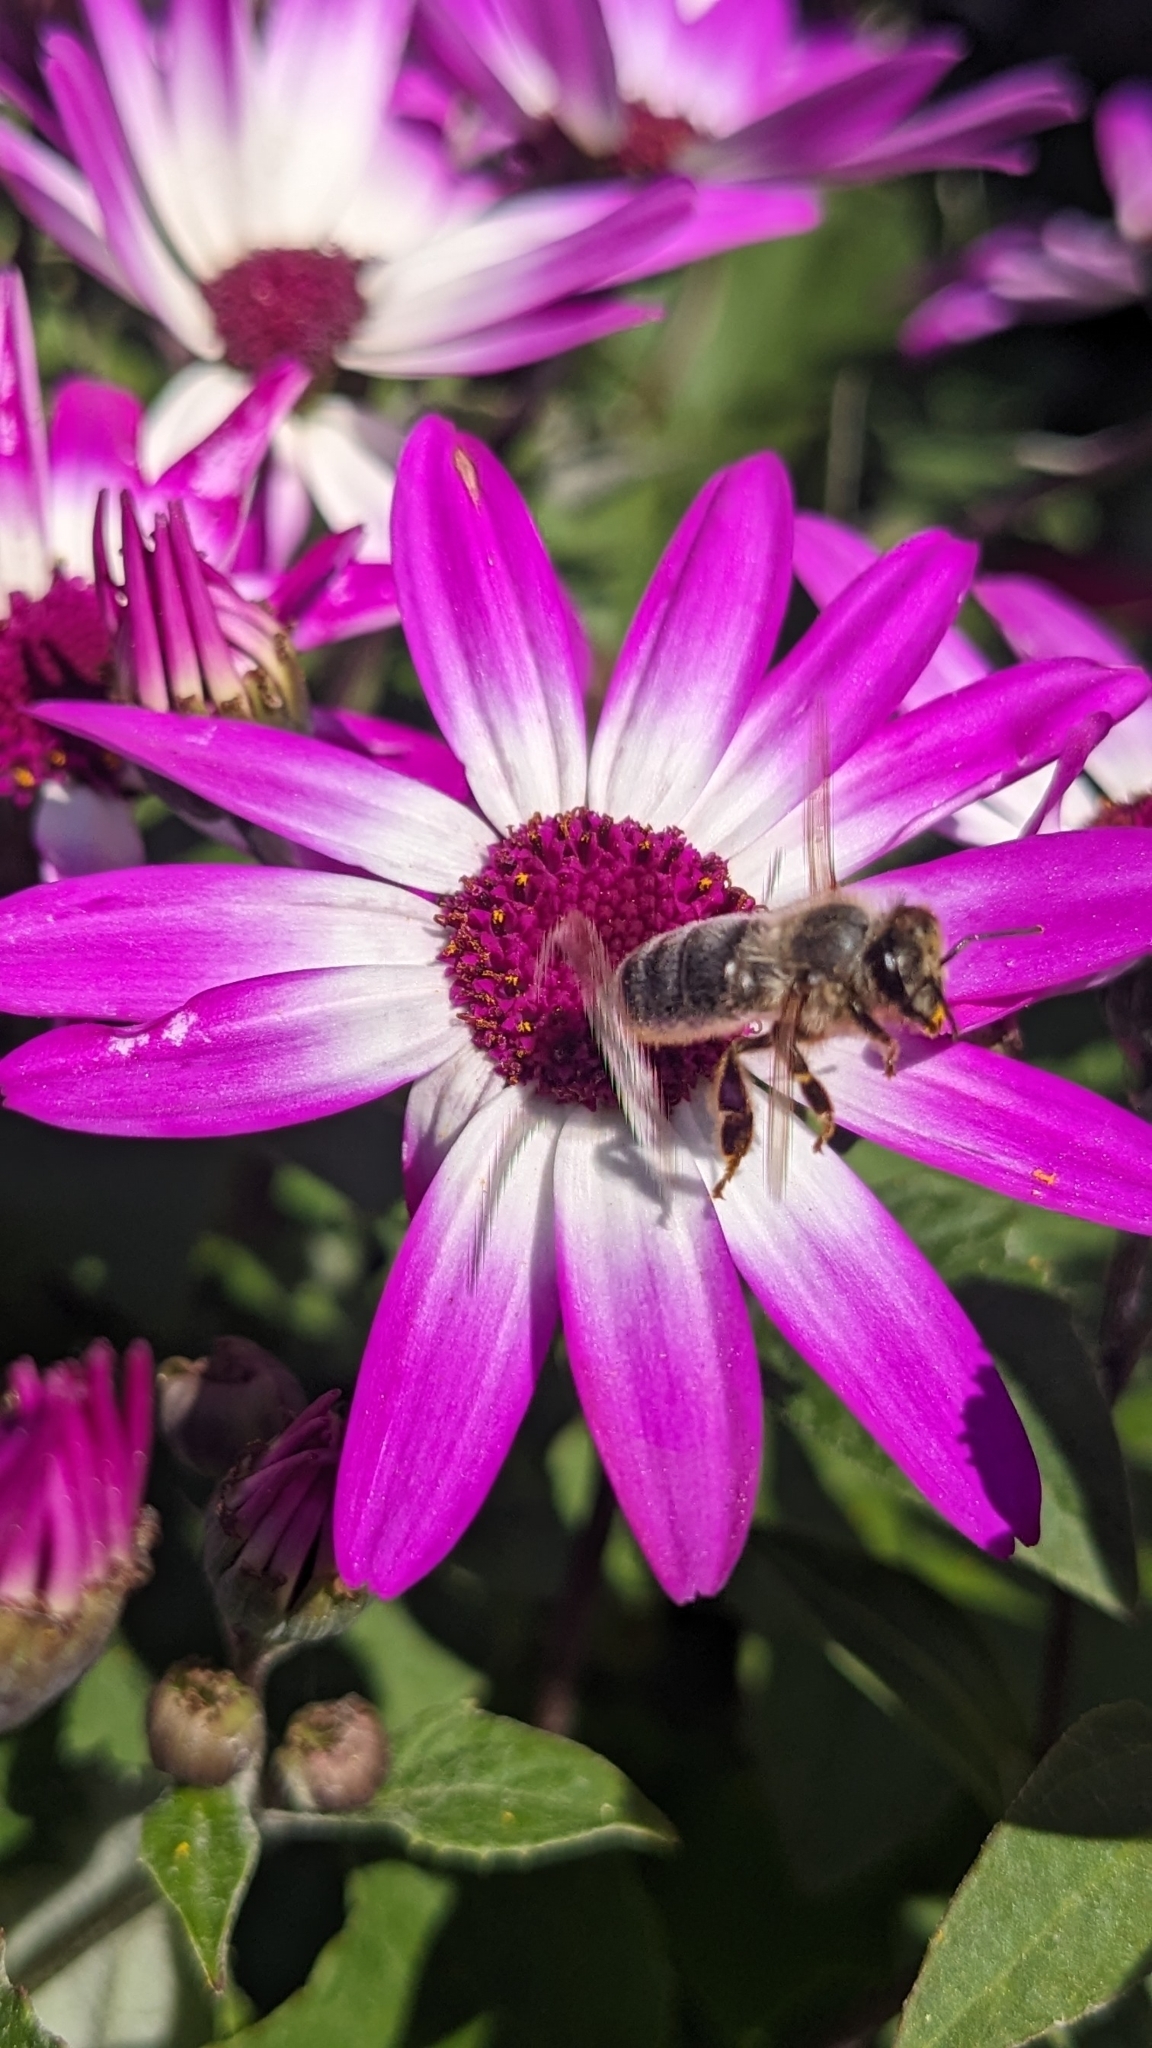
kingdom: Animalia
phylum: Arthropoda
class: Insecta
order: Hymenoptera
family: Apidae
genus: Apis
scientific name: Apis mellifera
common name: Honey bee
